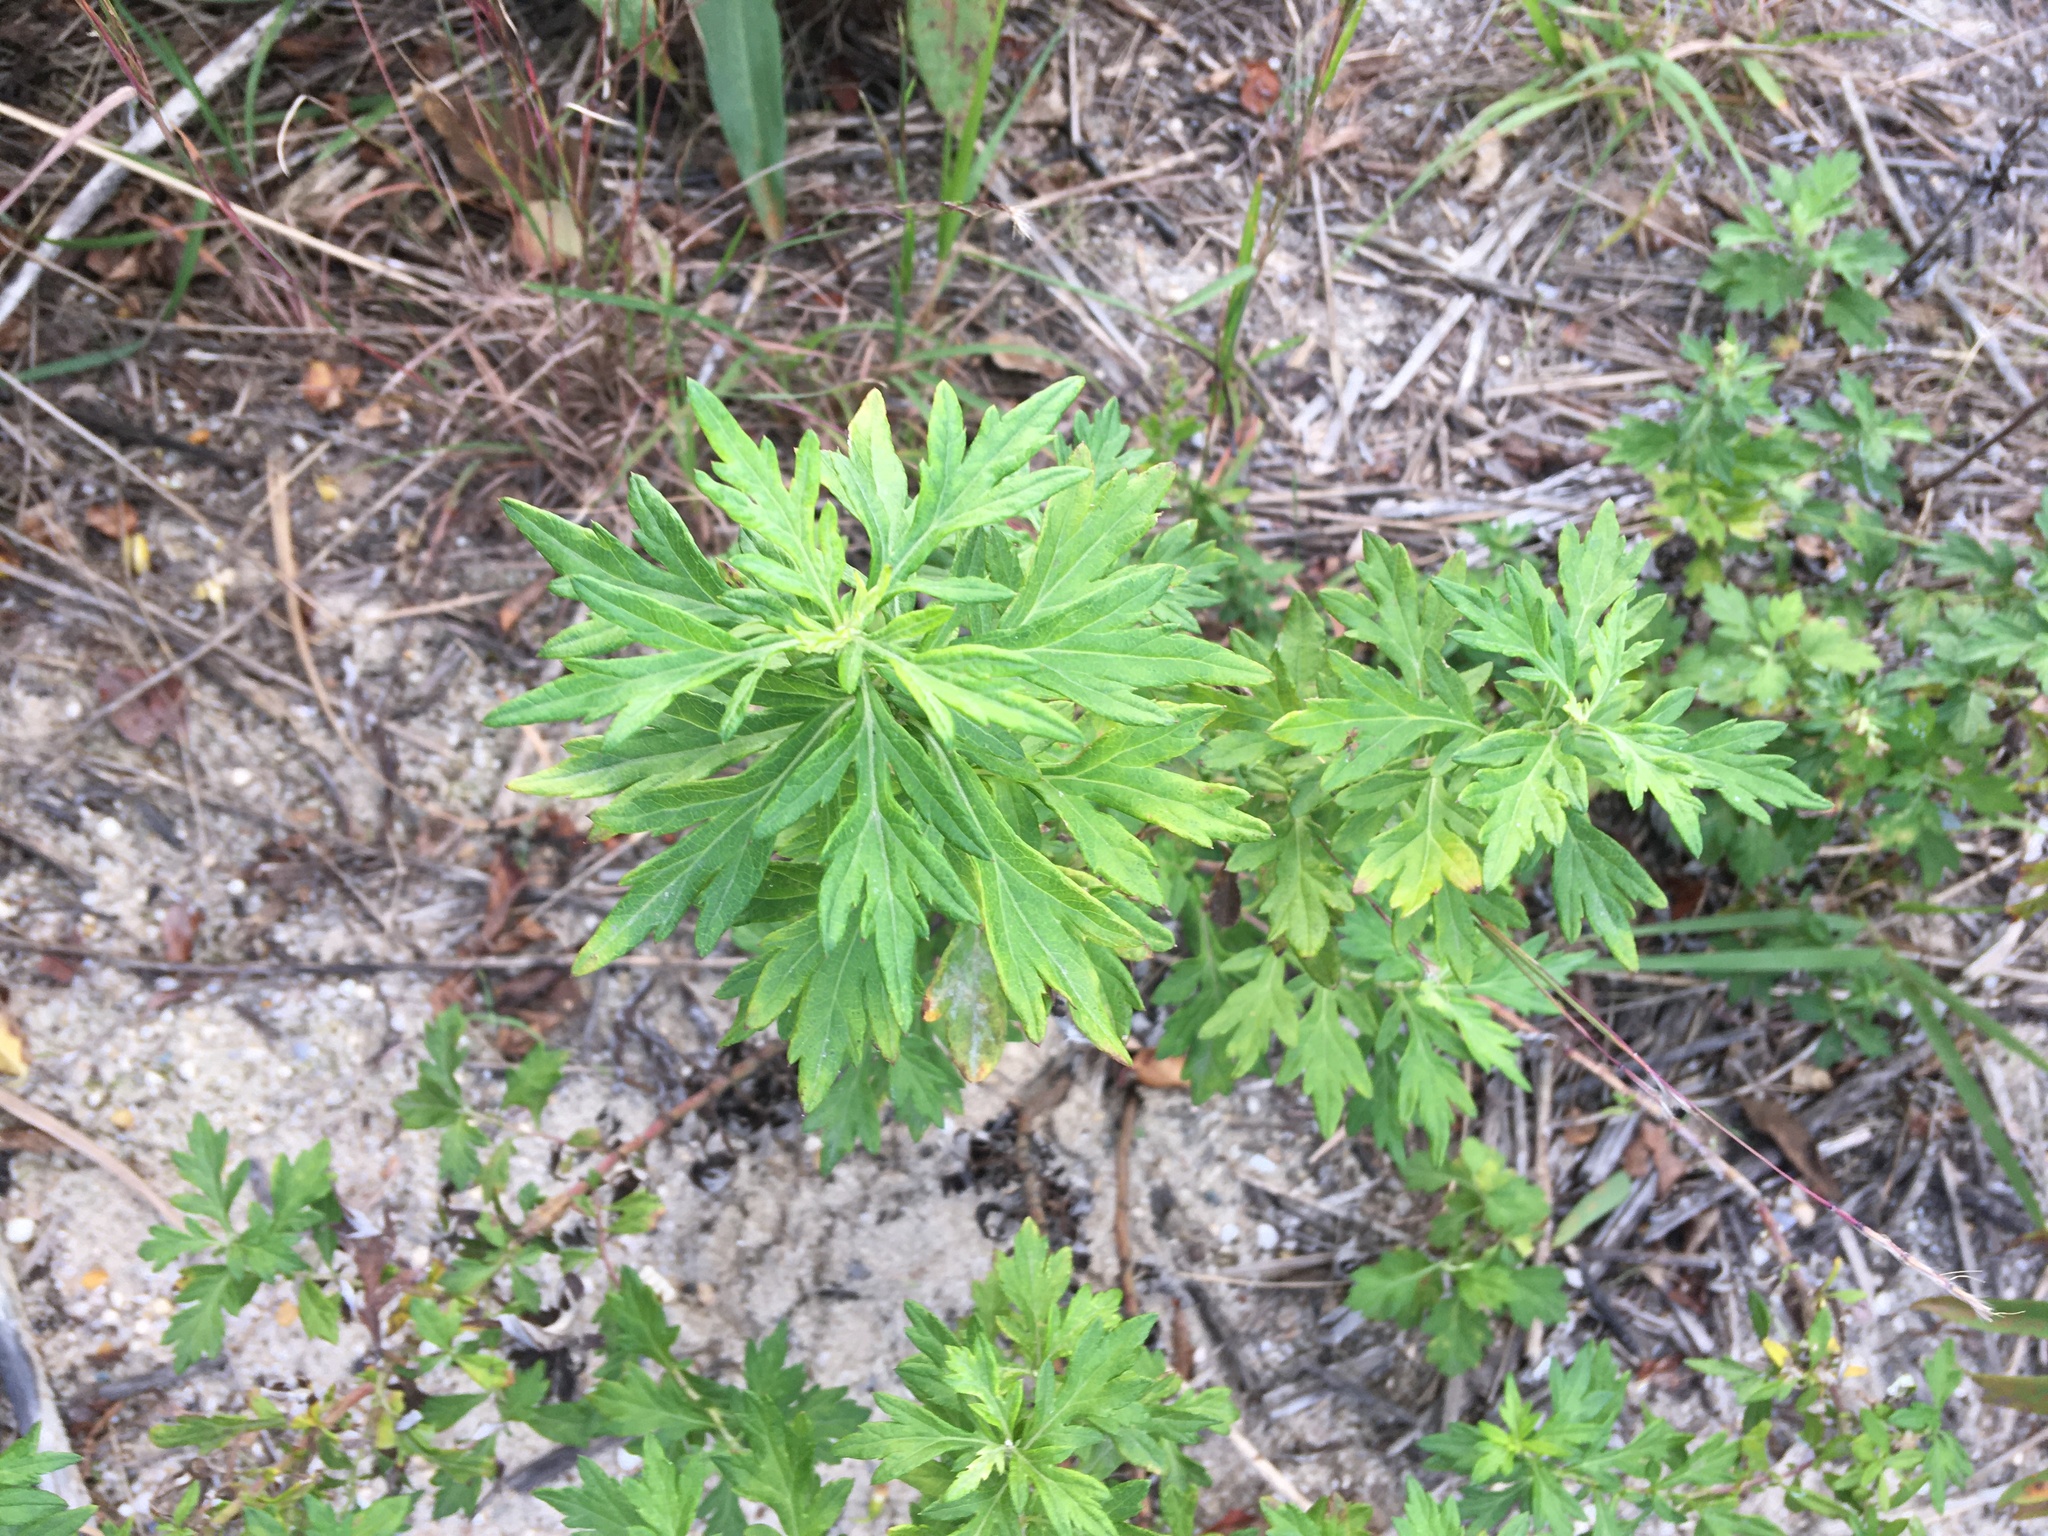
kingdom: Plantae
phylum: Tracheophyta
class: Magnoliopsida
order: Asterales
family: Asteraceae
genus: Artemisia
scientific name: Artemisia vulgaris
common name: Mugwort
